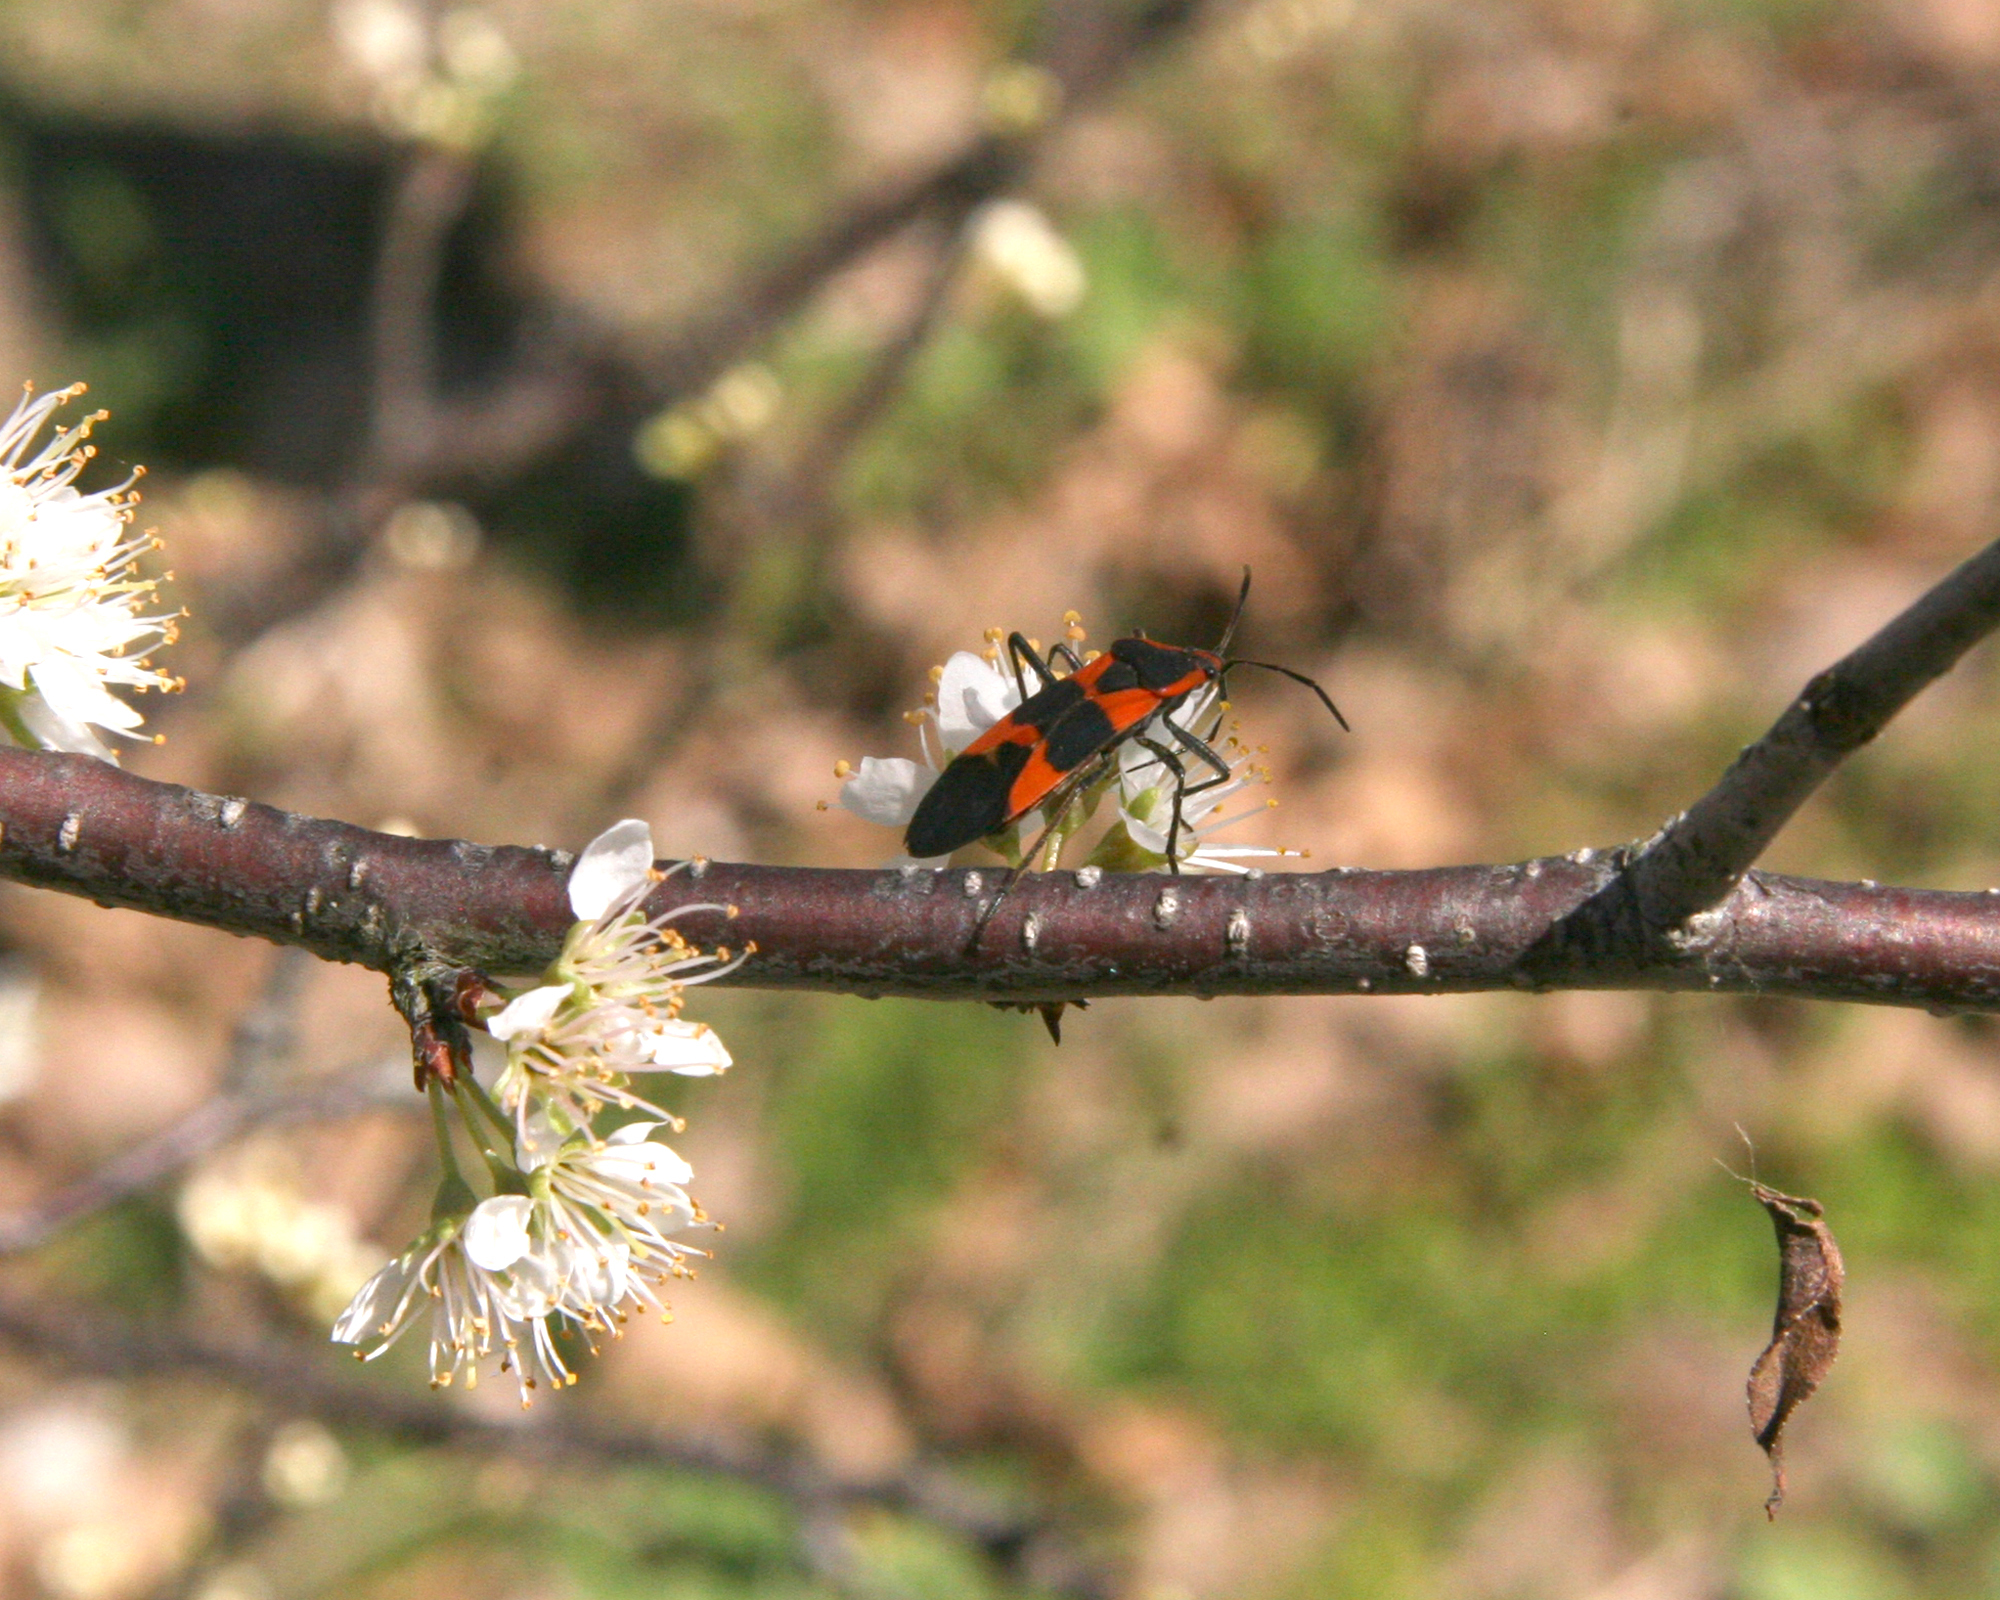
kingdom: Animalia
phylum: Arthropoda
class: Insecta
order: Hemiptera
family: Lygaeidae
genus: Oncopeltus
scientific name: Oncopeltus fasciatus
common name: Large milkweed bug
